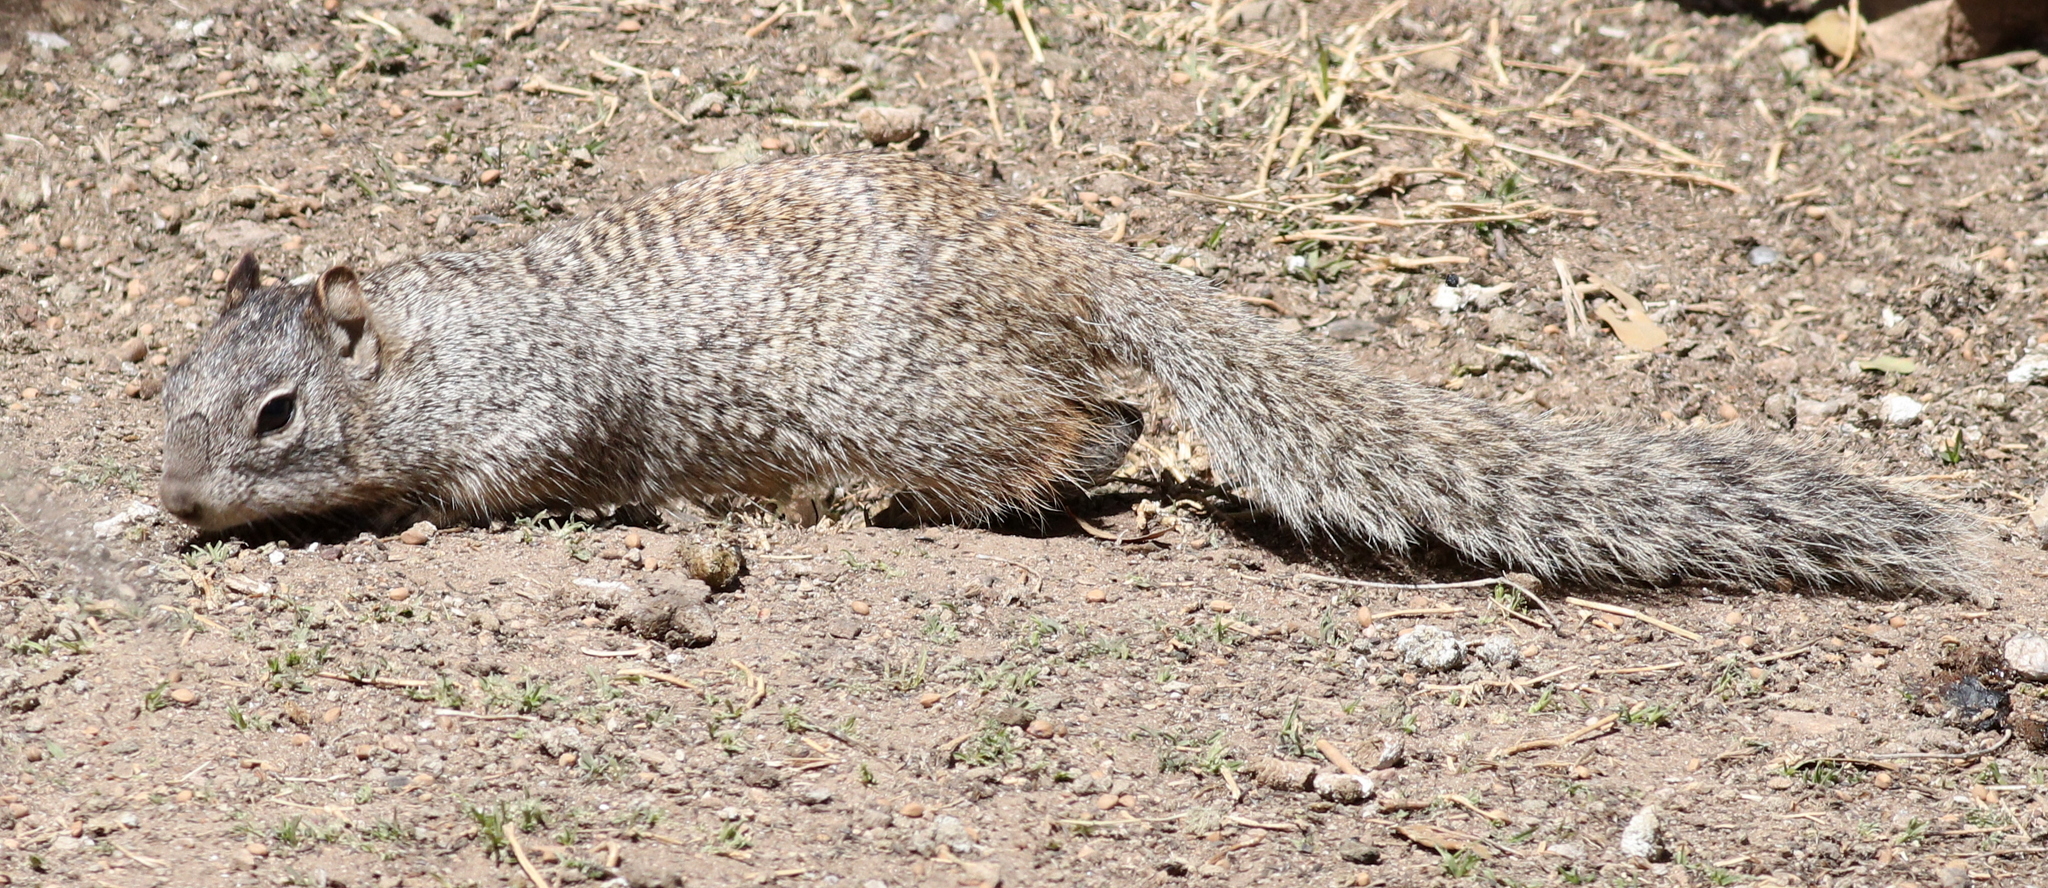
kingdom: Animalia
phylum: Chordata
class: Mammalia
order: Rodentia
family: Sciuridae
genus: Otospermophilus
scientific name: Otospermophilus variegatus
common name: Rock squirrel
